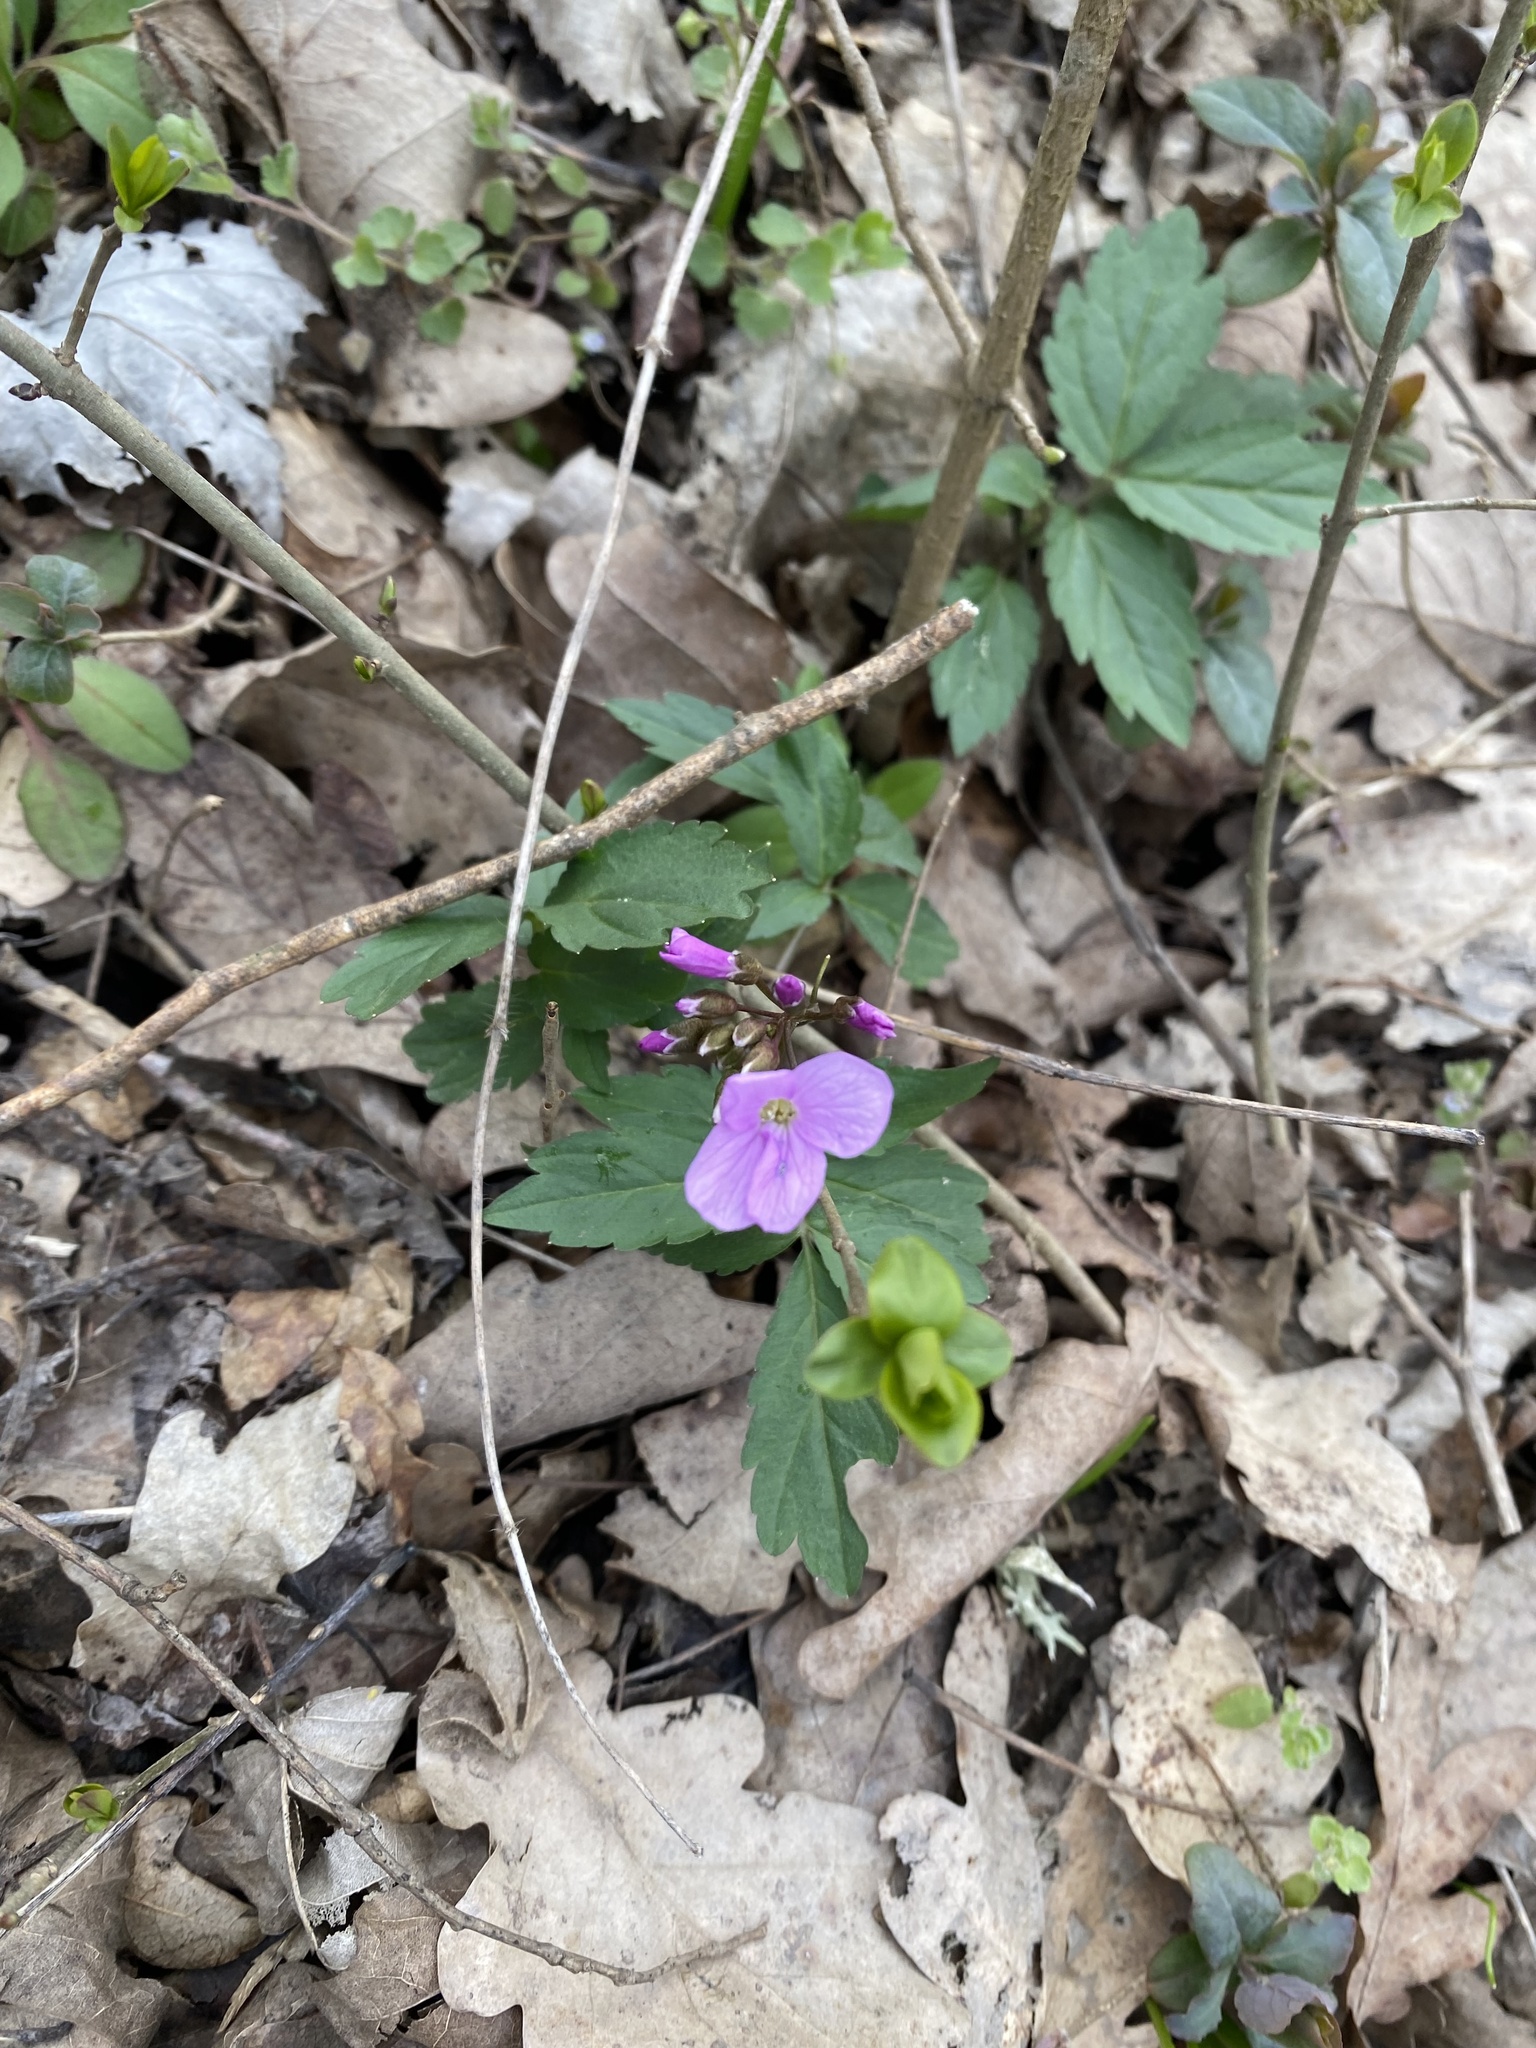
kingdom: Plantae
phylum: Tracheophyta
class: Magnoliopsida
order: Brassicales
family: Brassicaceae
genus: Cardamine
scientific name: Cardamine quinquefolia
